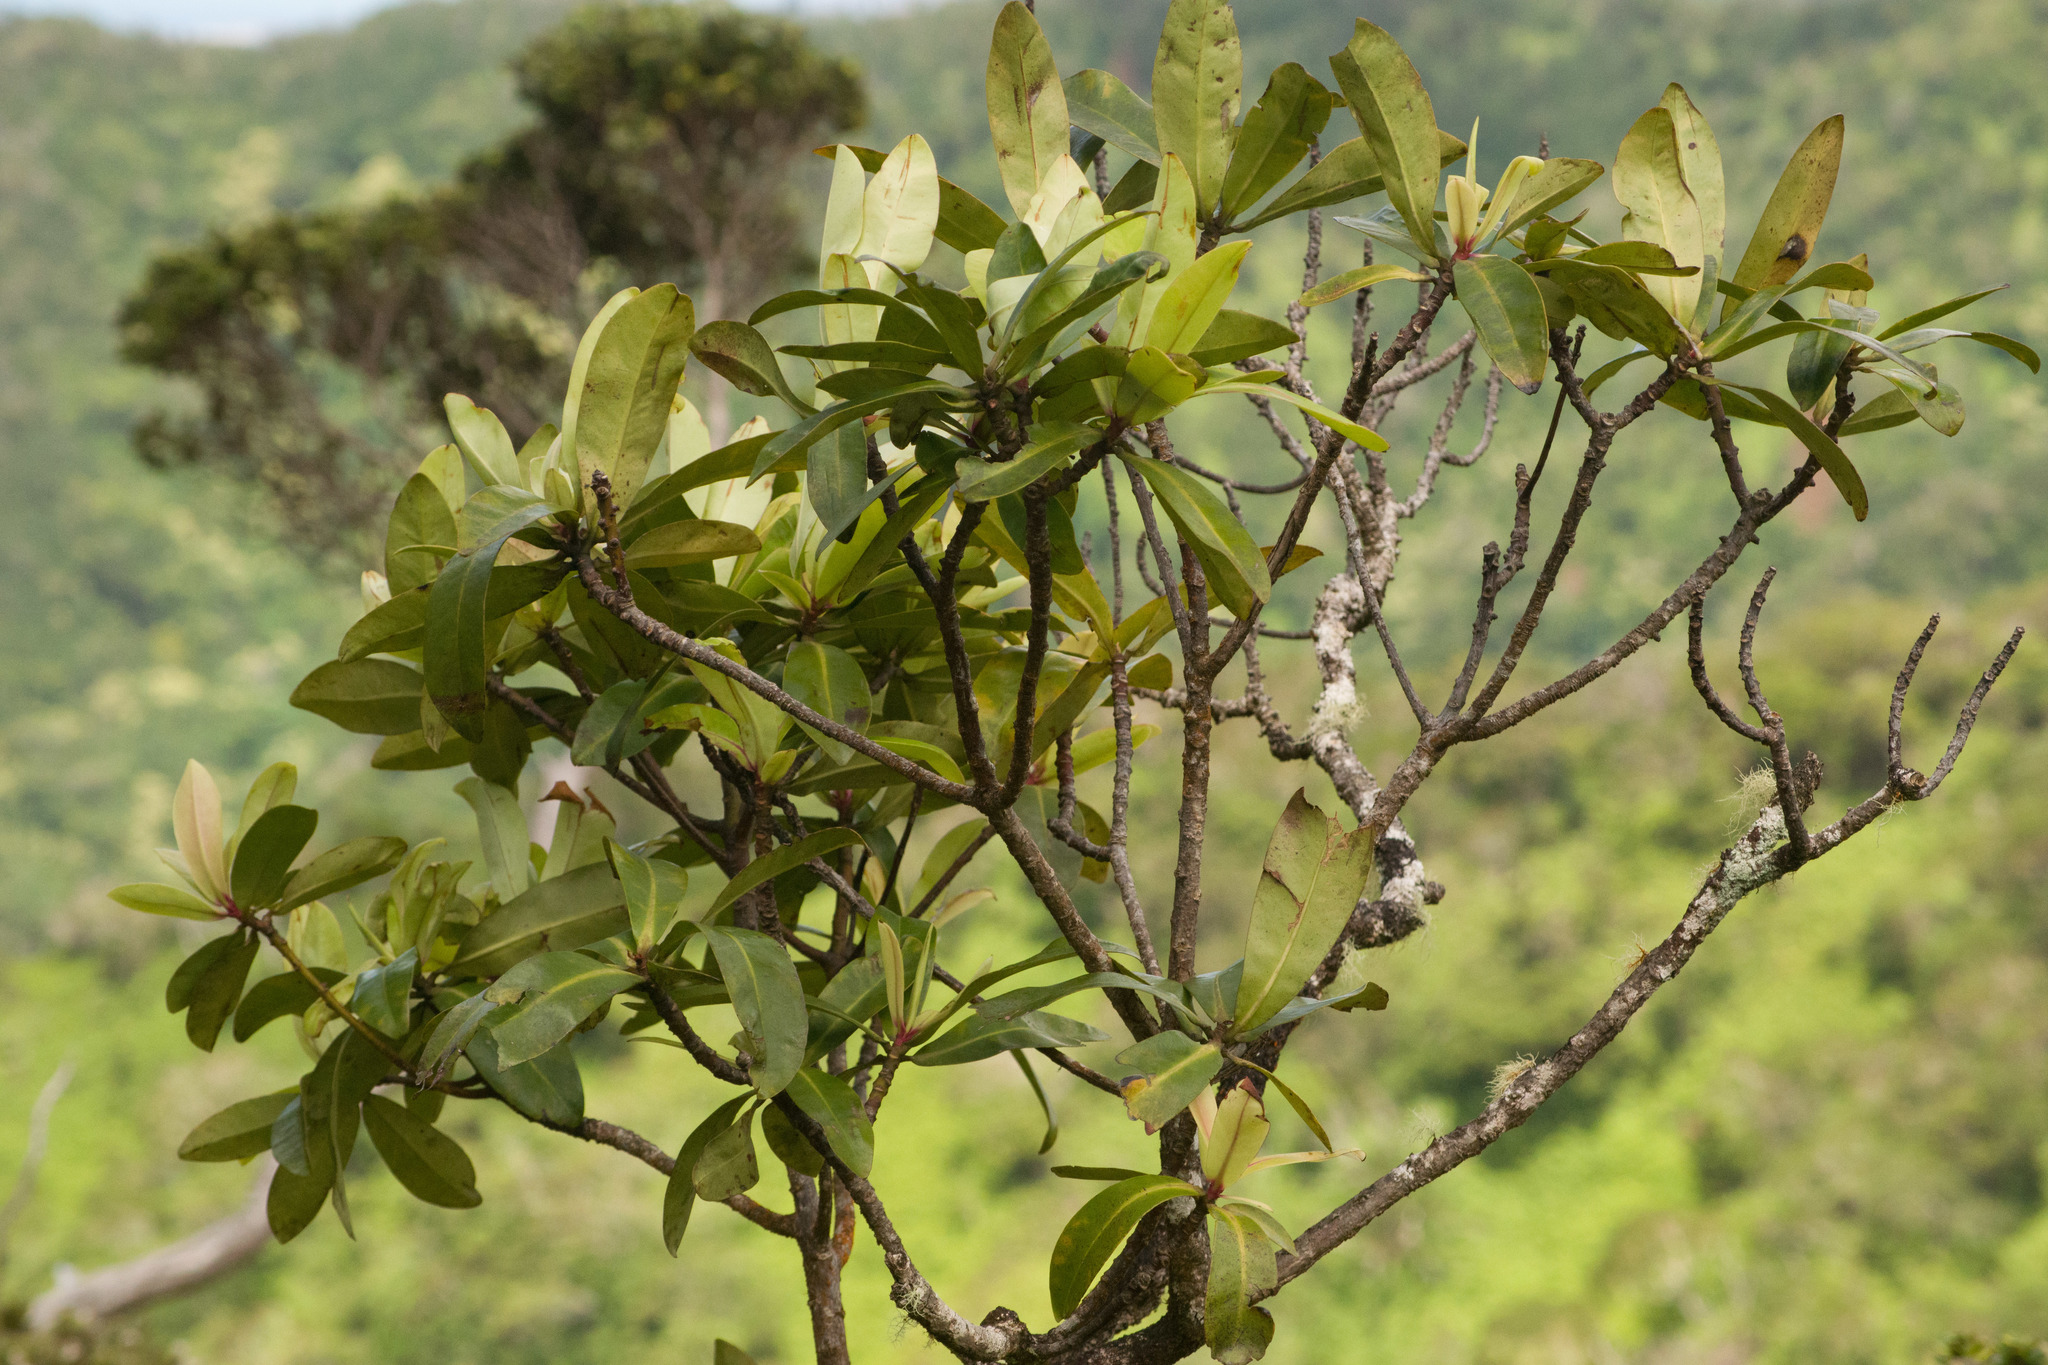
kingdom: Plantae
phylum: Tracheophyta
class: Magnoliopsida
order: Ericales
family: Primulaceae
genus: Myrsine
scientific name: Myrsine lessertiana
